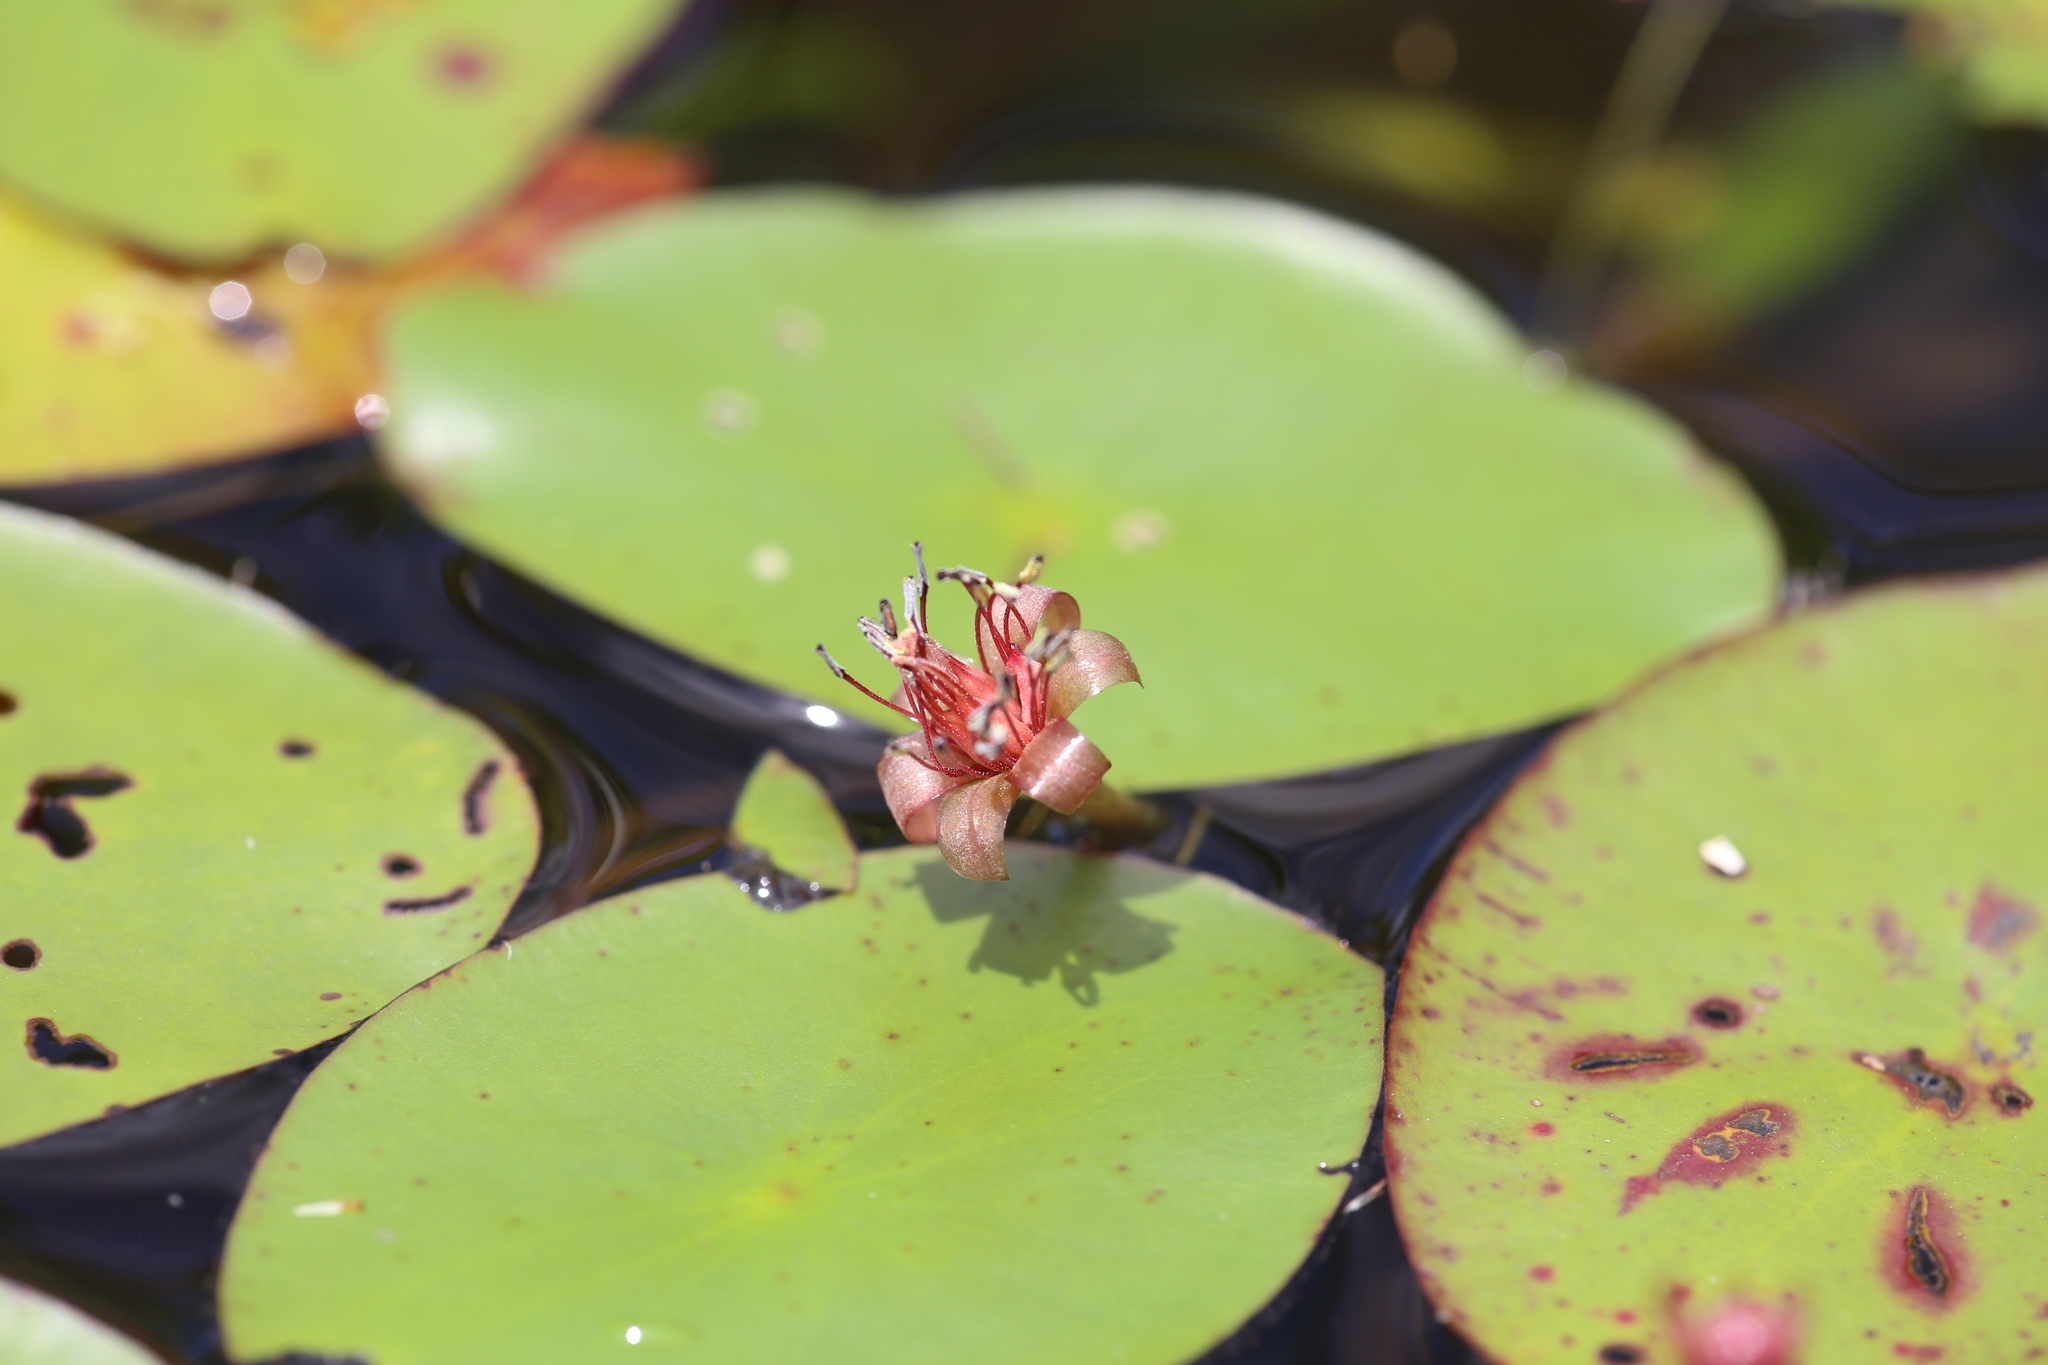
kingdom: Plantae
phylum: Tracheophyta
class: Magnoliopsida
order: Nymphaeales
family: Cabombaceae
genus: Brasenia
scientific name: Brasenia schreberi
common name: Water-shield
